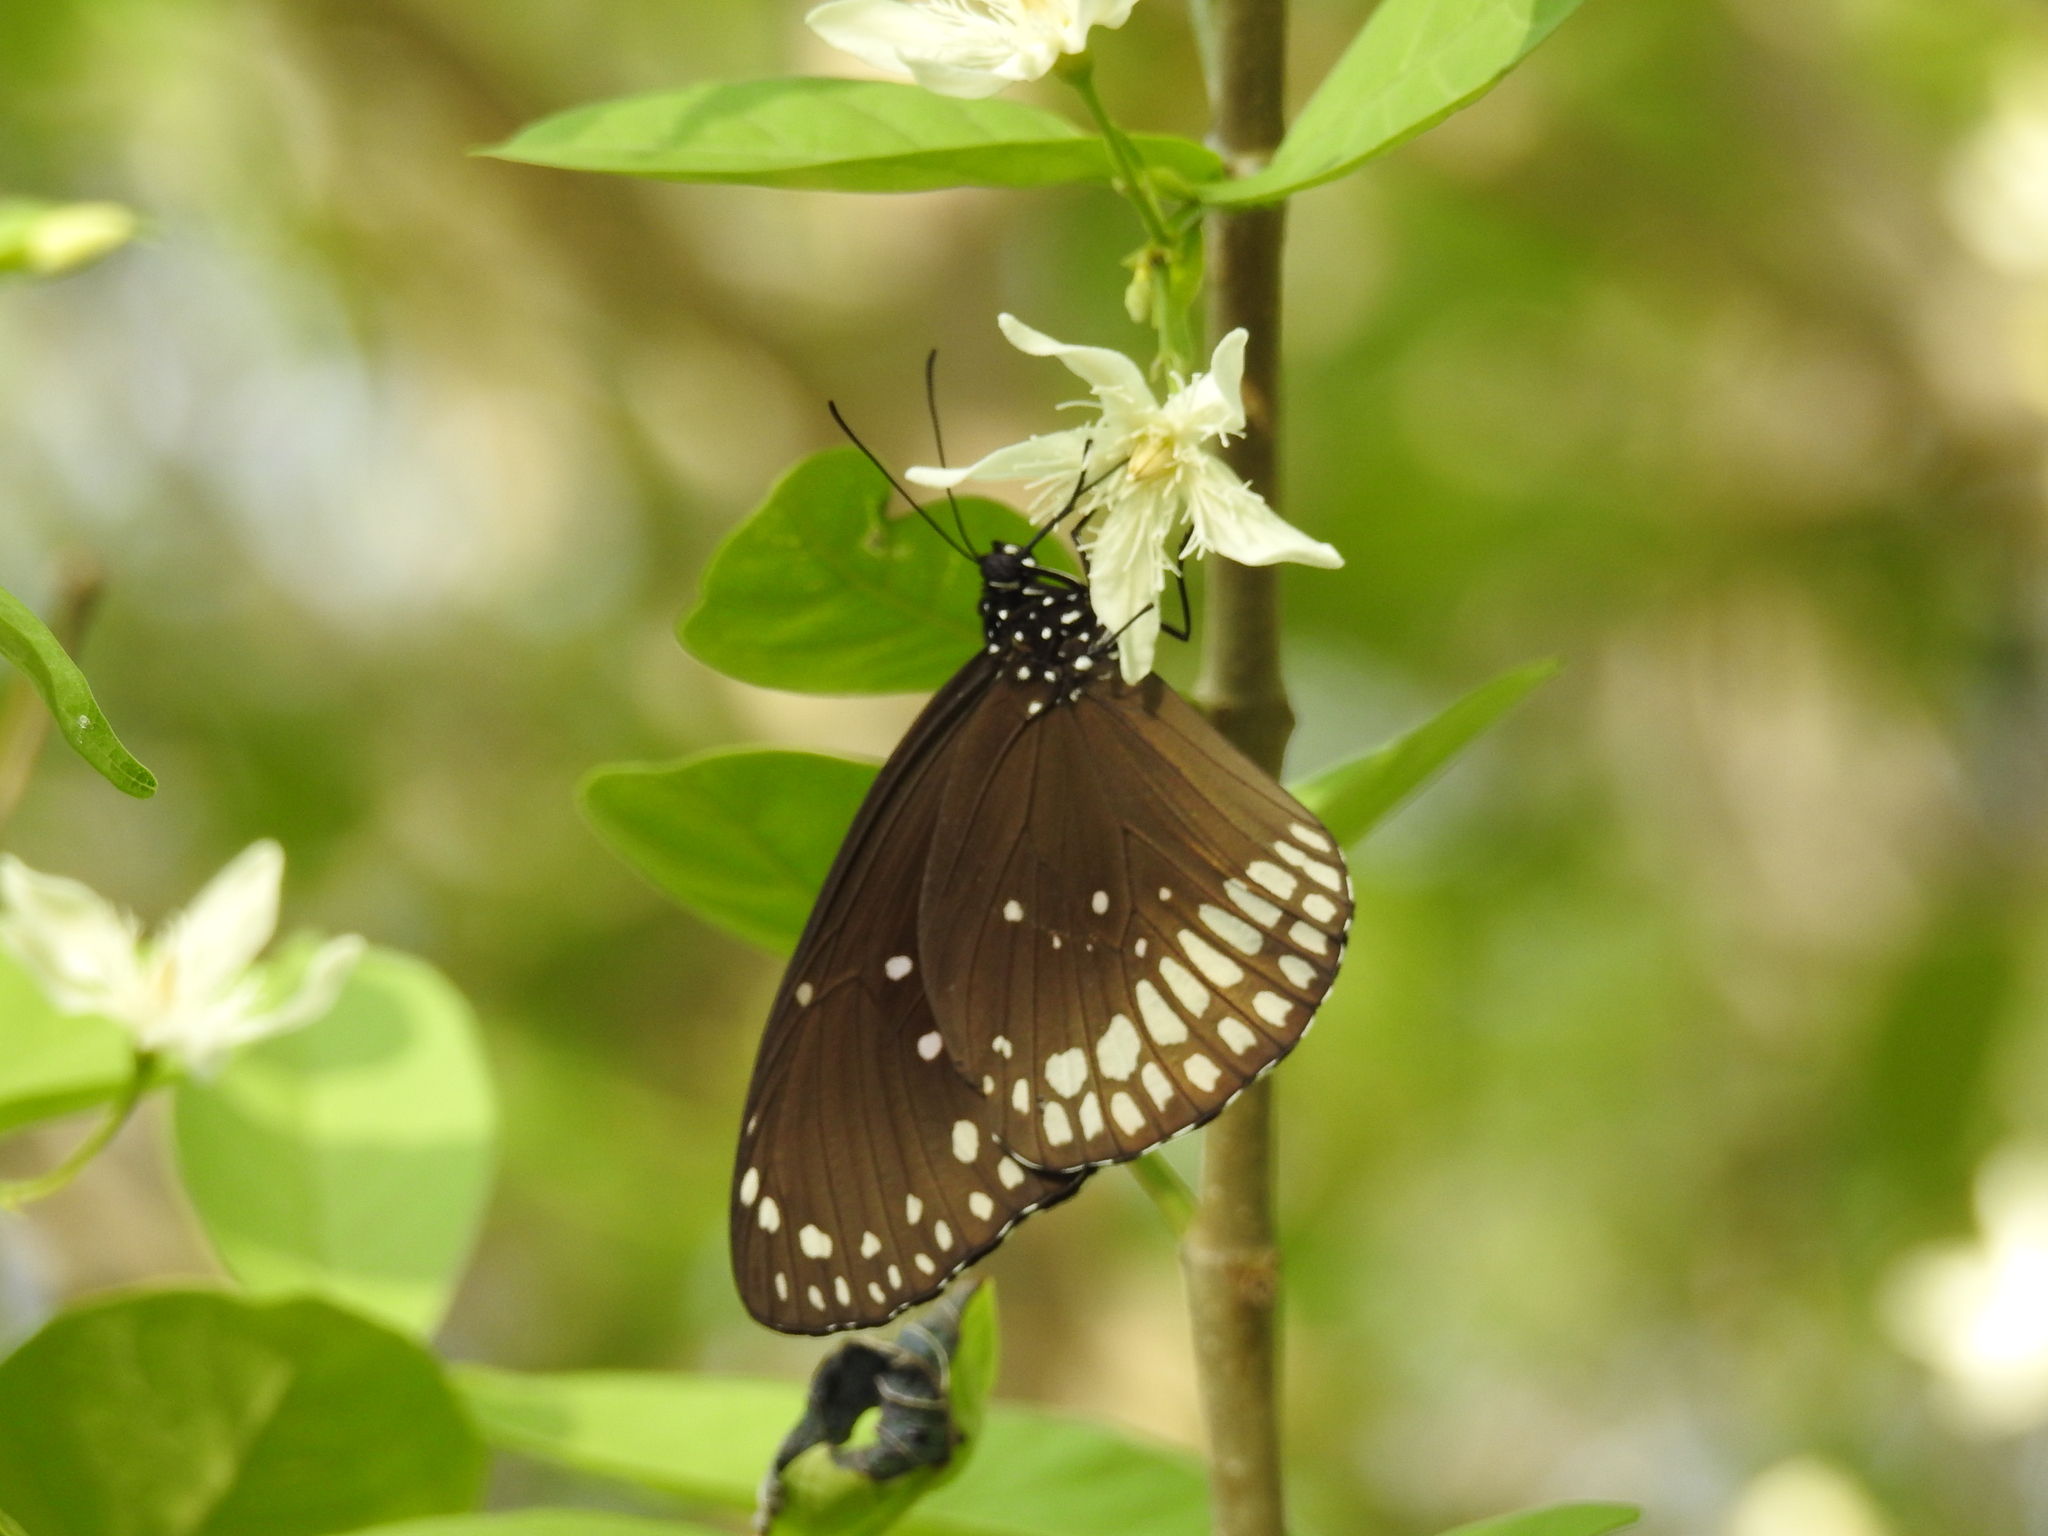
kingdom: Animalia
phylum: Arthropoda
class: Insecta
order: Lepidoptera
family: Nymphalidae
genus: Euploea
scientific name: Euploea core
